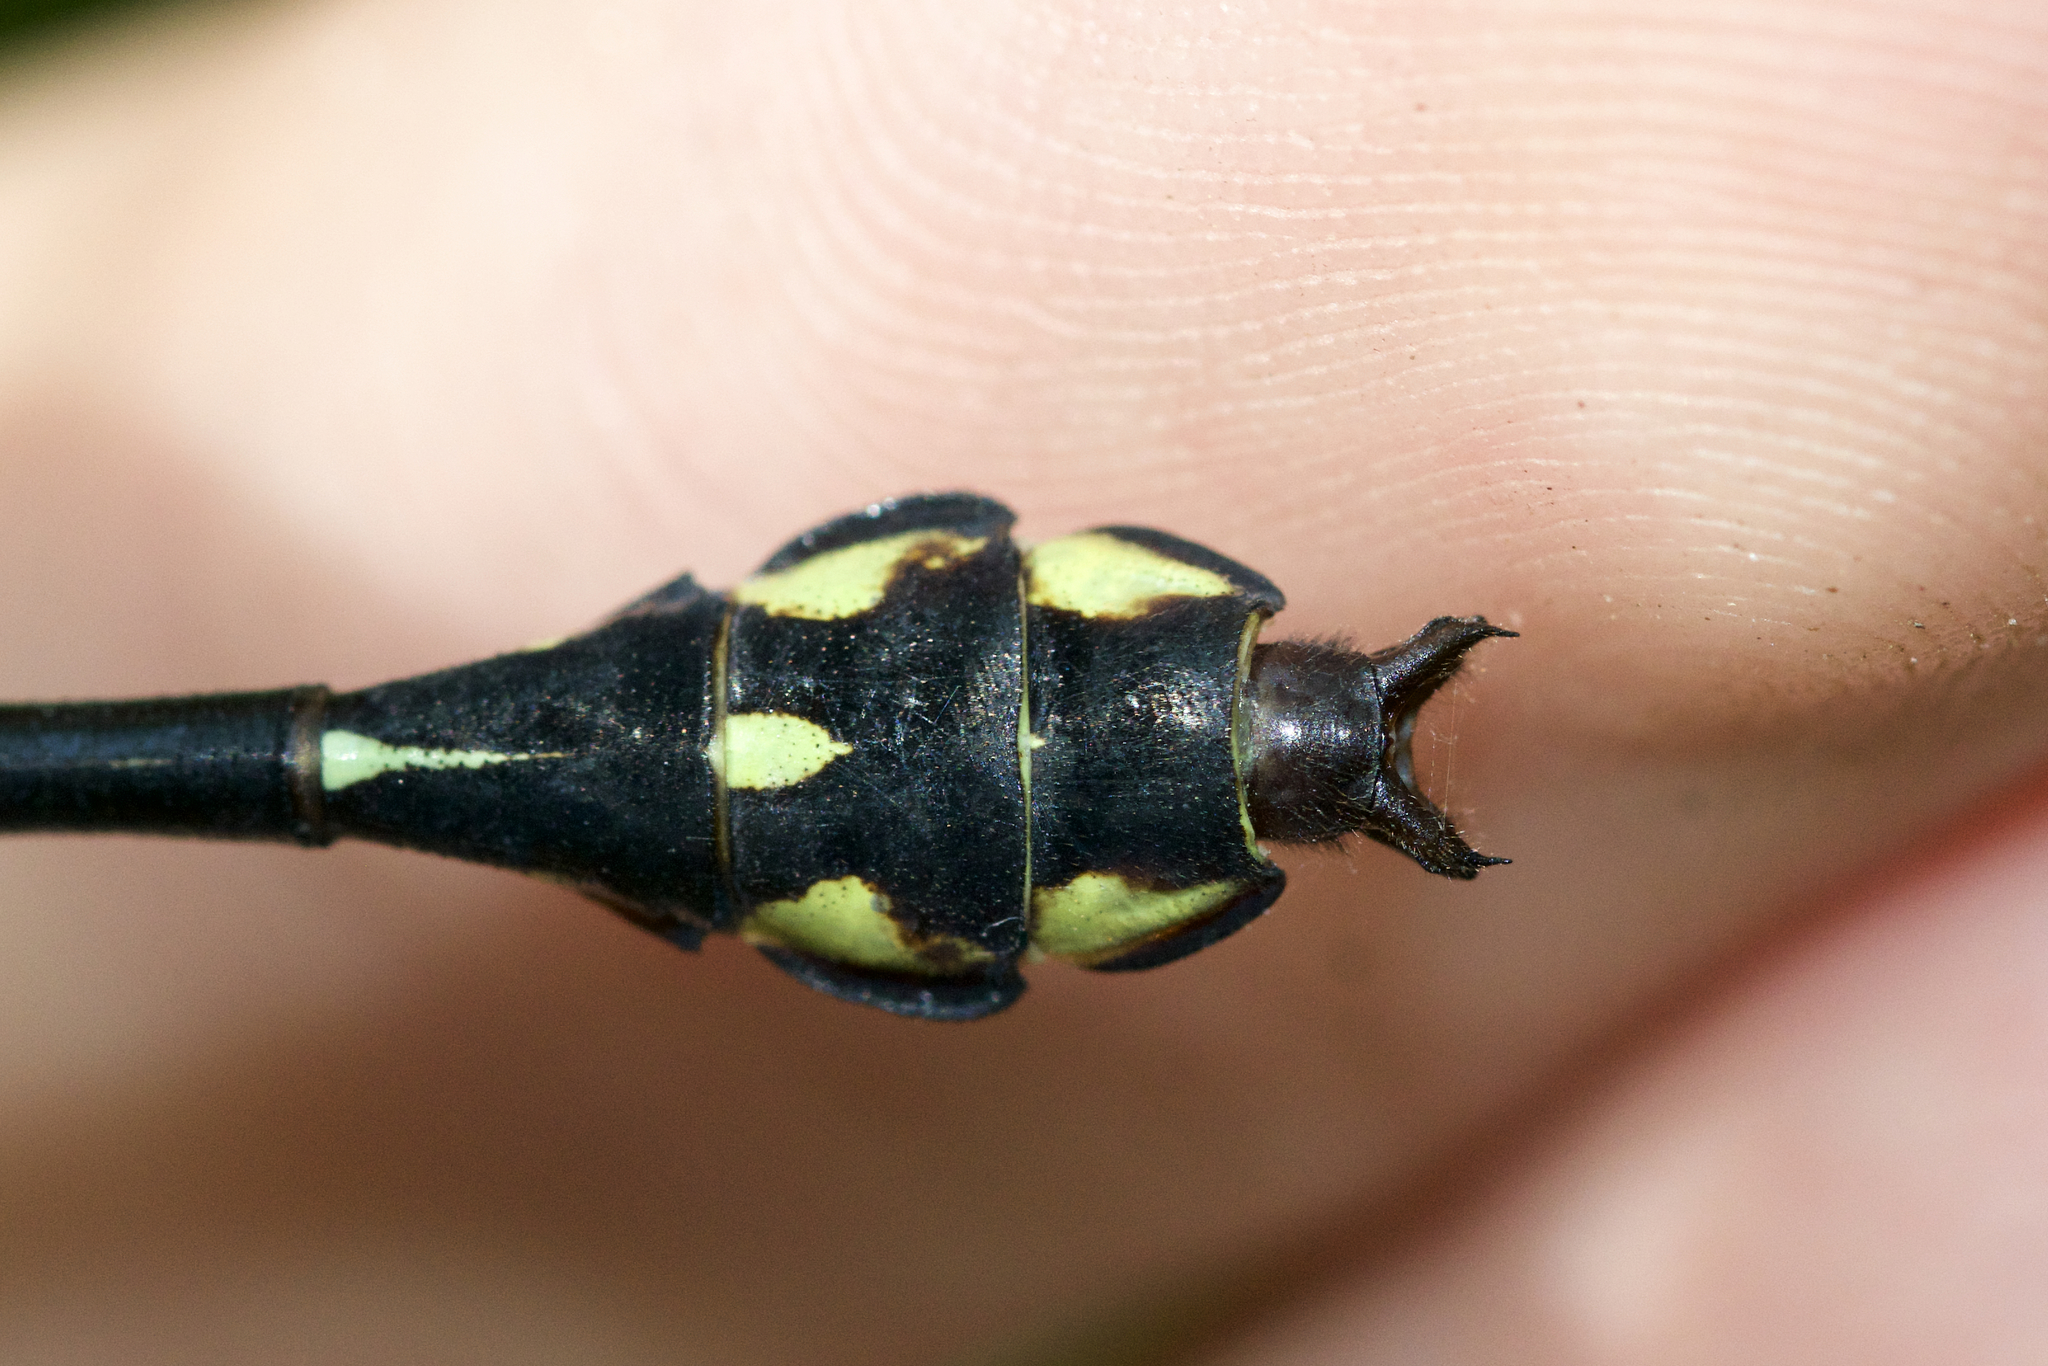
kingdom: Animalia
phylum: Arthropoda
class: Insecta
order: Odonata
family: Gomphidae
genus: Stylurus
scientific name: Stylurus amnicola
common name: Riverine clubtail
